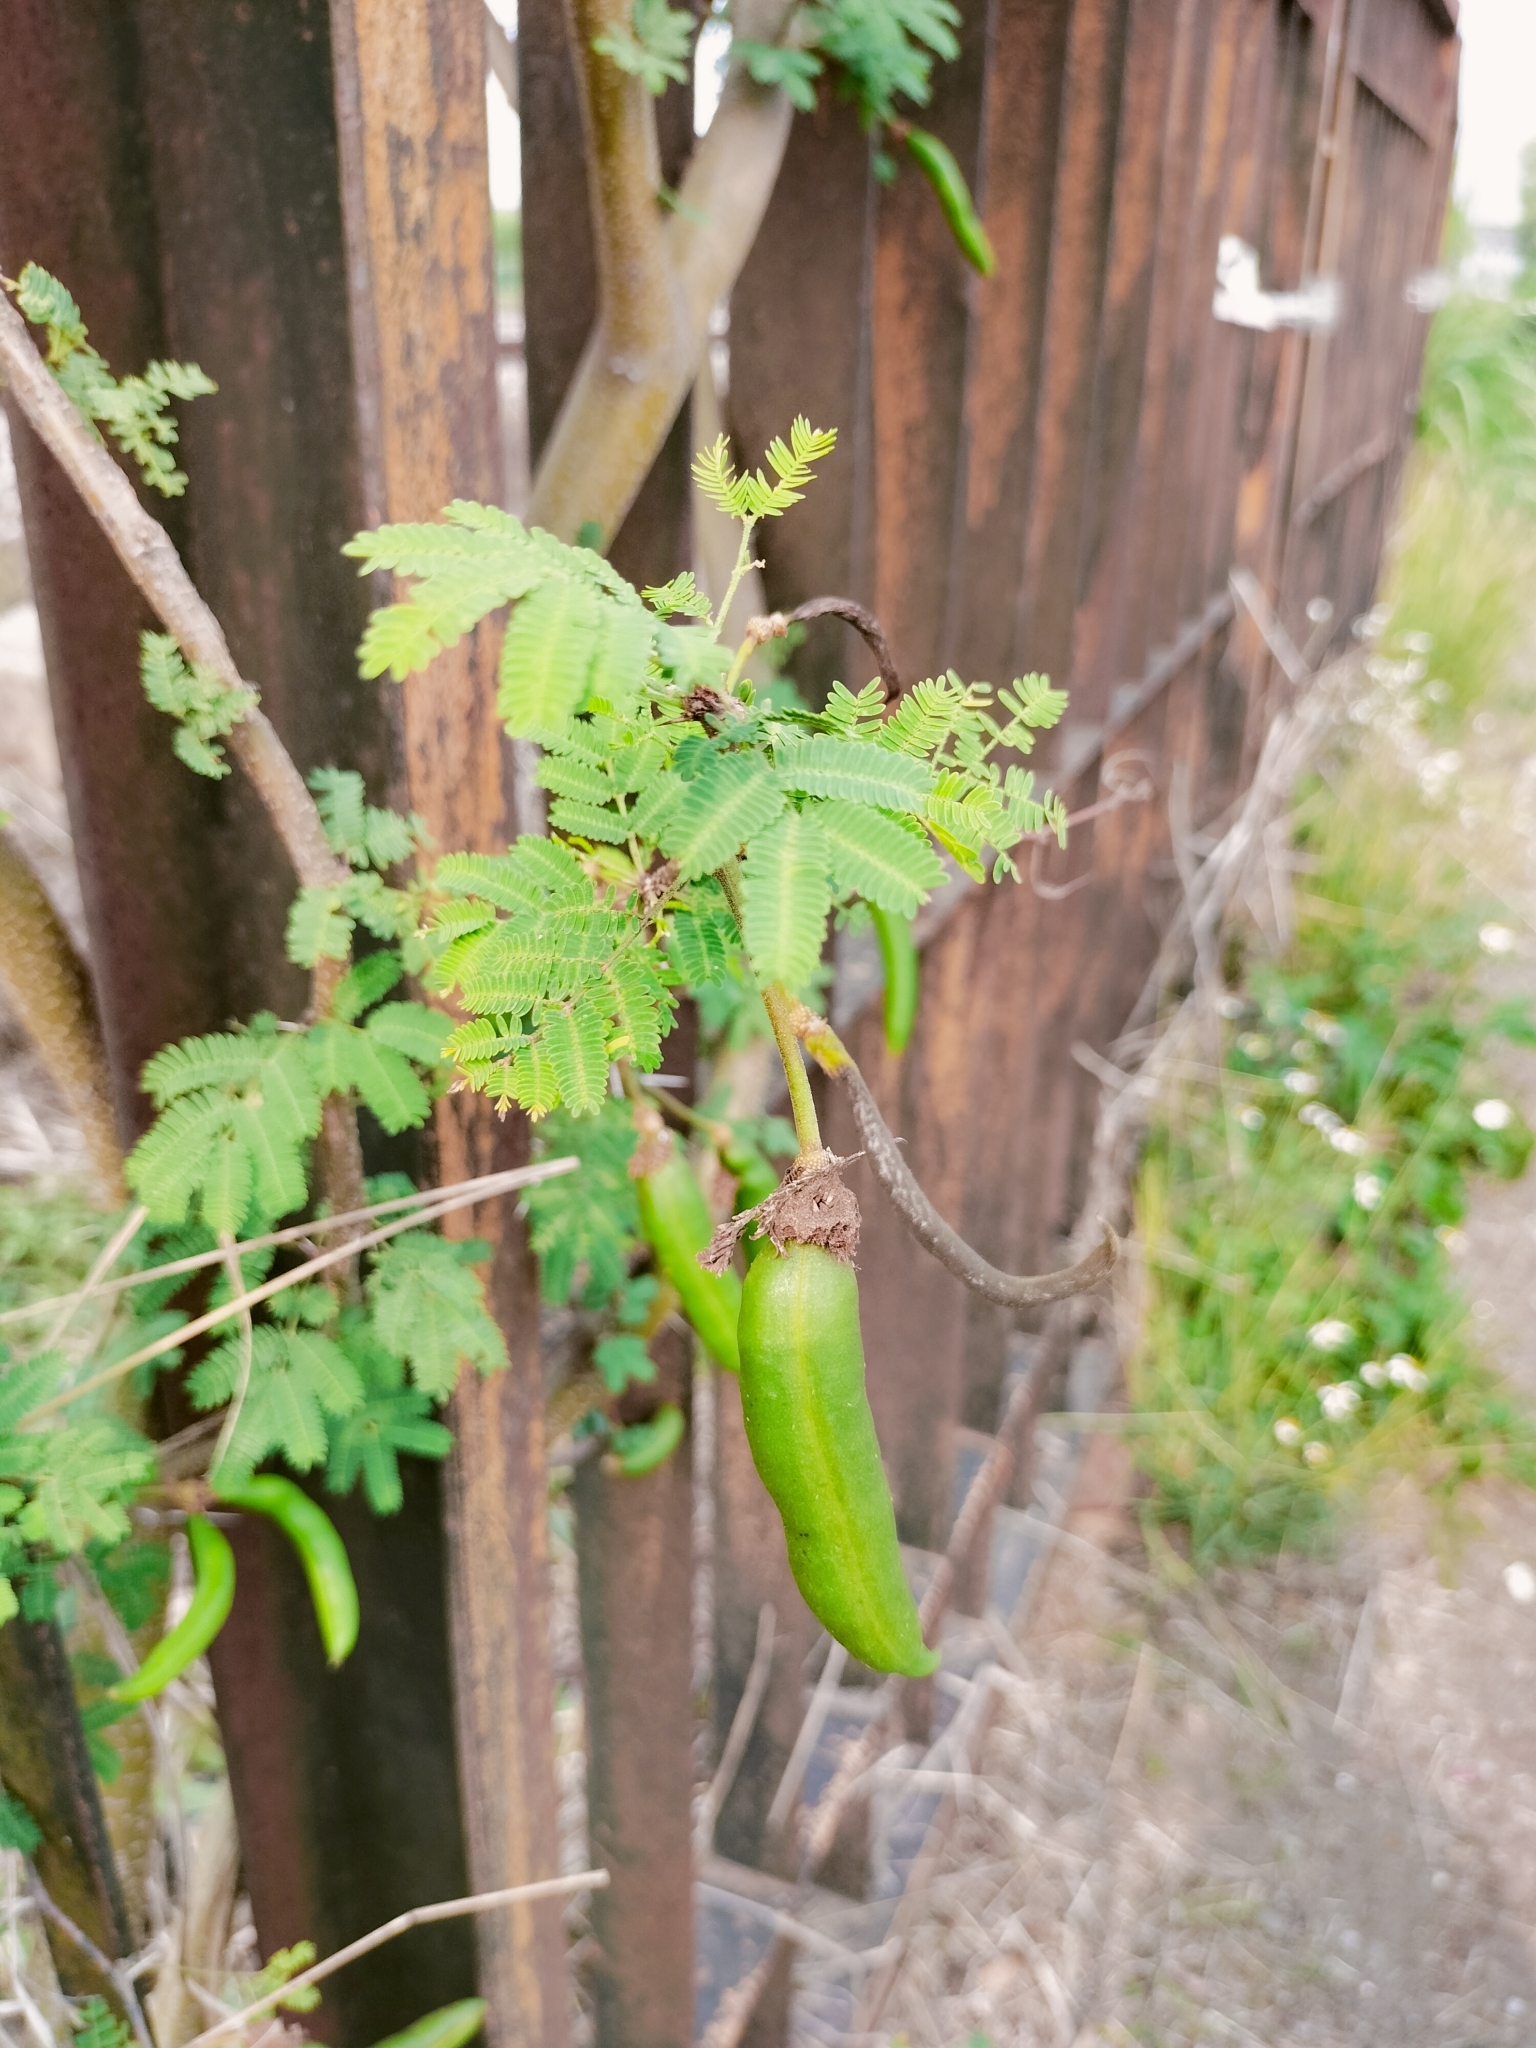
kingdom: Plantae
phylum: Tracheophyta
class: Magnoliopsida
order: Fabales
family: Fabaceae
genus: Vachellia
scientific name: Vachellia farnesiana
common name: Sweet acacia
